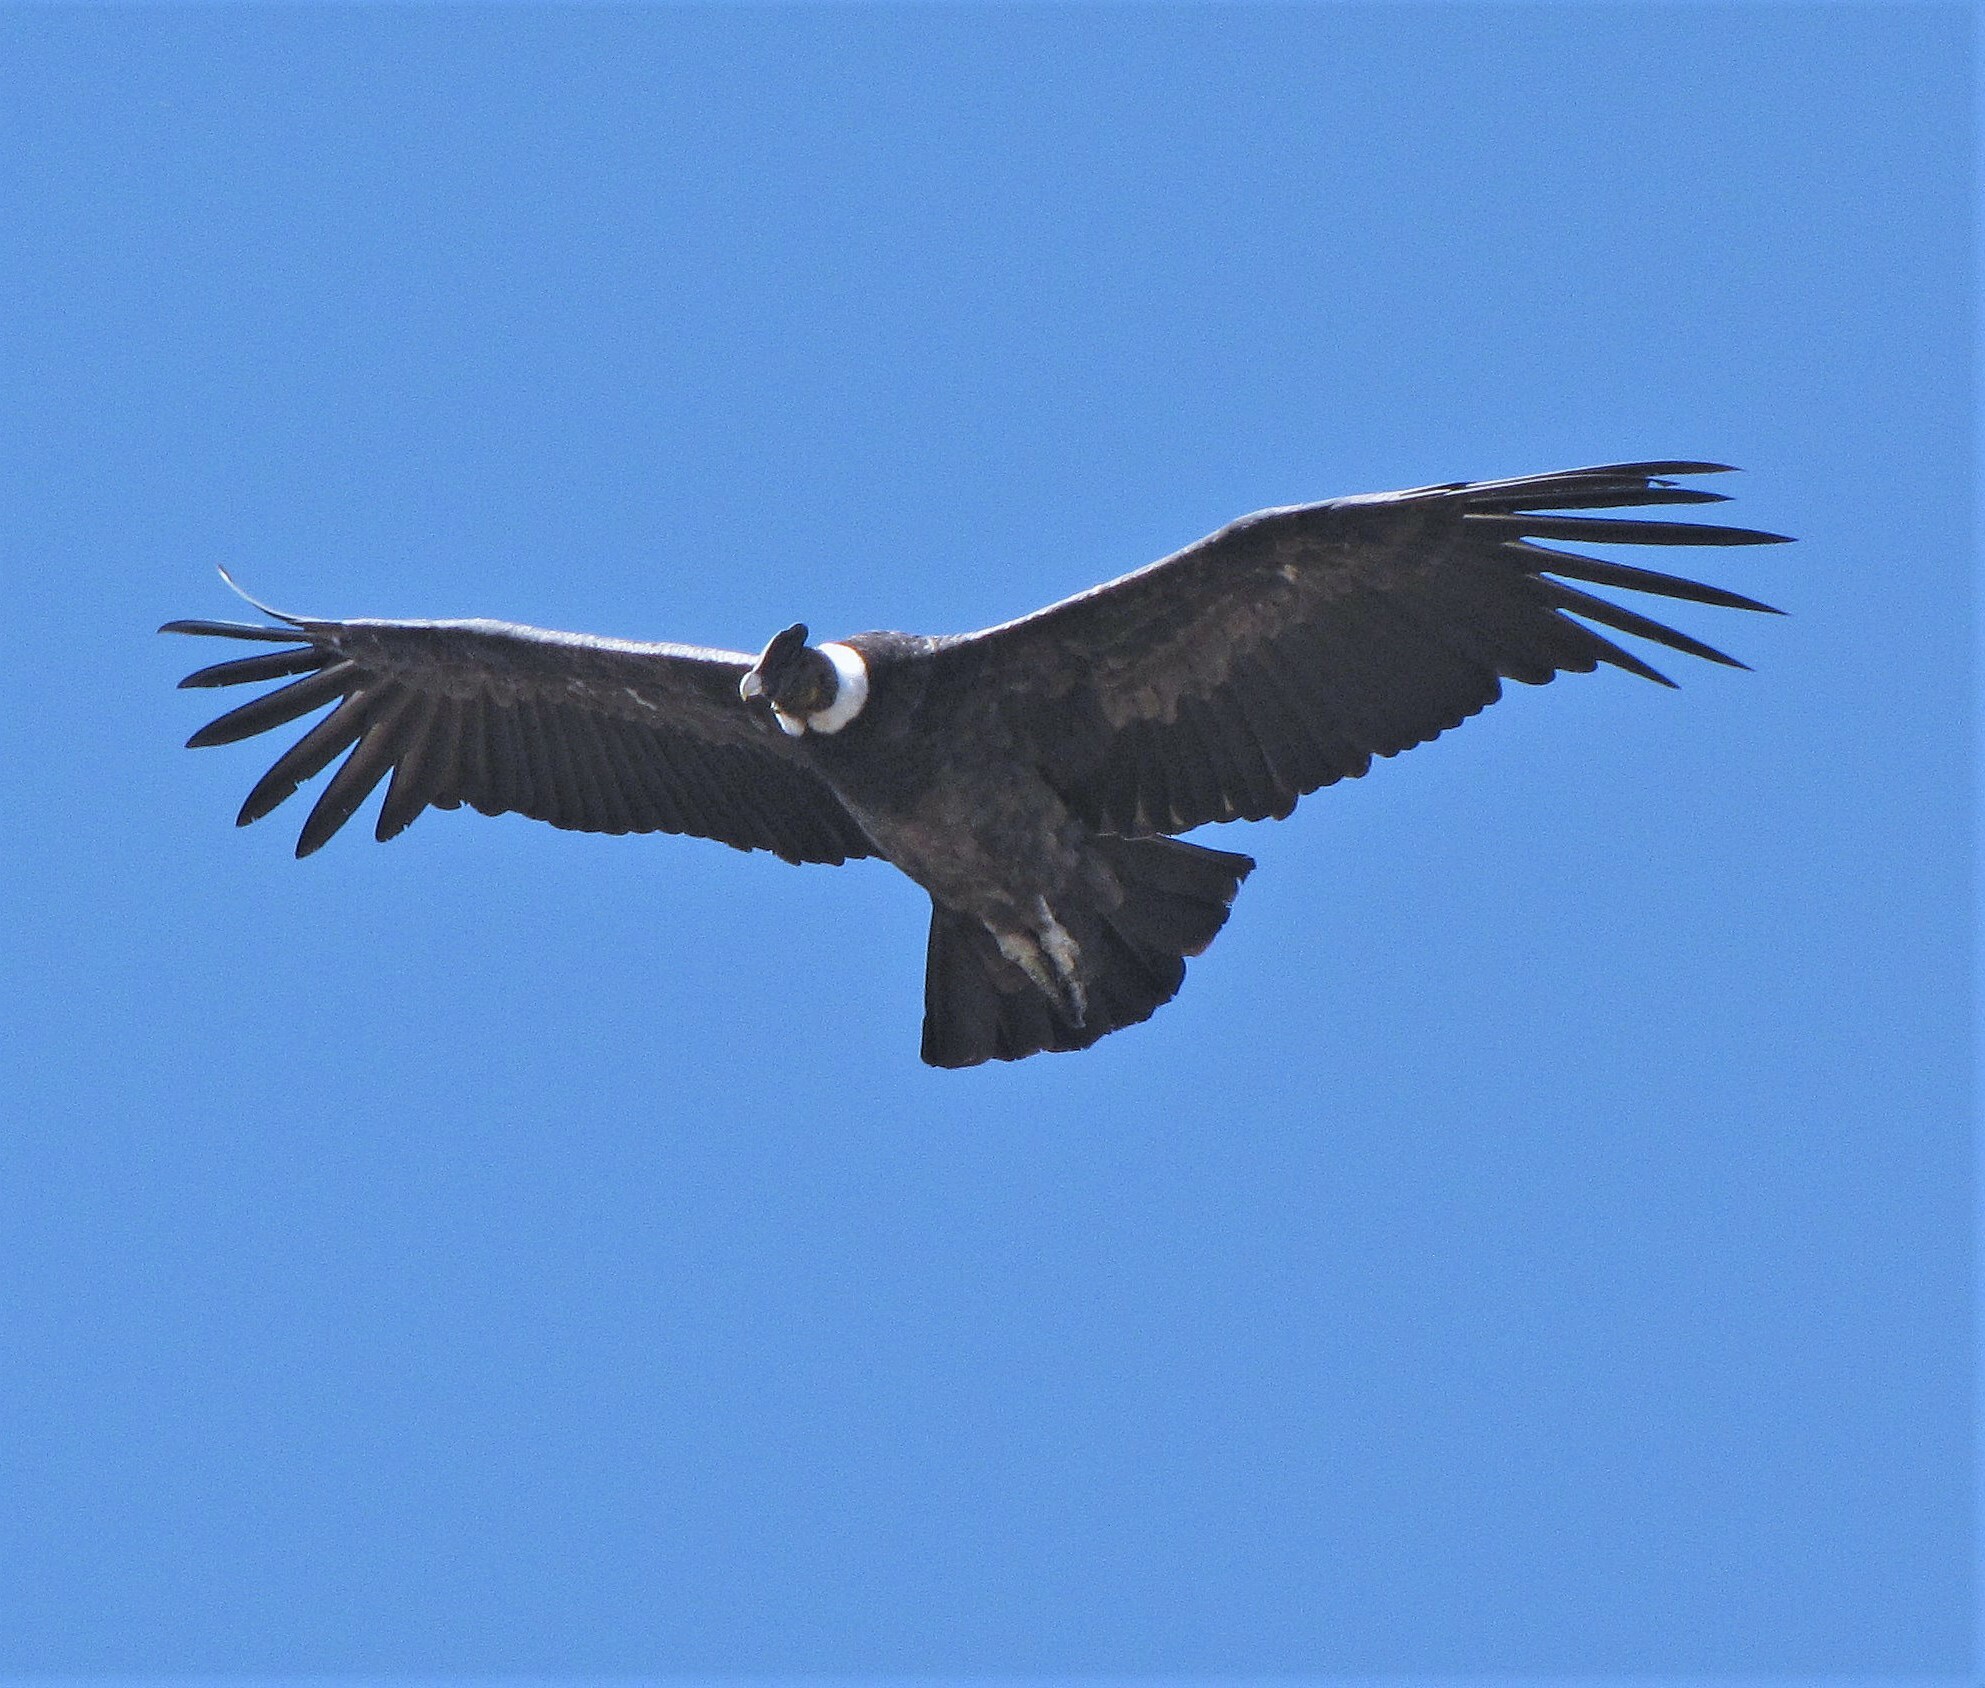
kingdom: Animalia
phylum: Chordata
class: Aves
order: Accipitriformes
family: Cathartidae
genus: Vultur
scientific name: Vultur gryphus
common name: Andean condor
